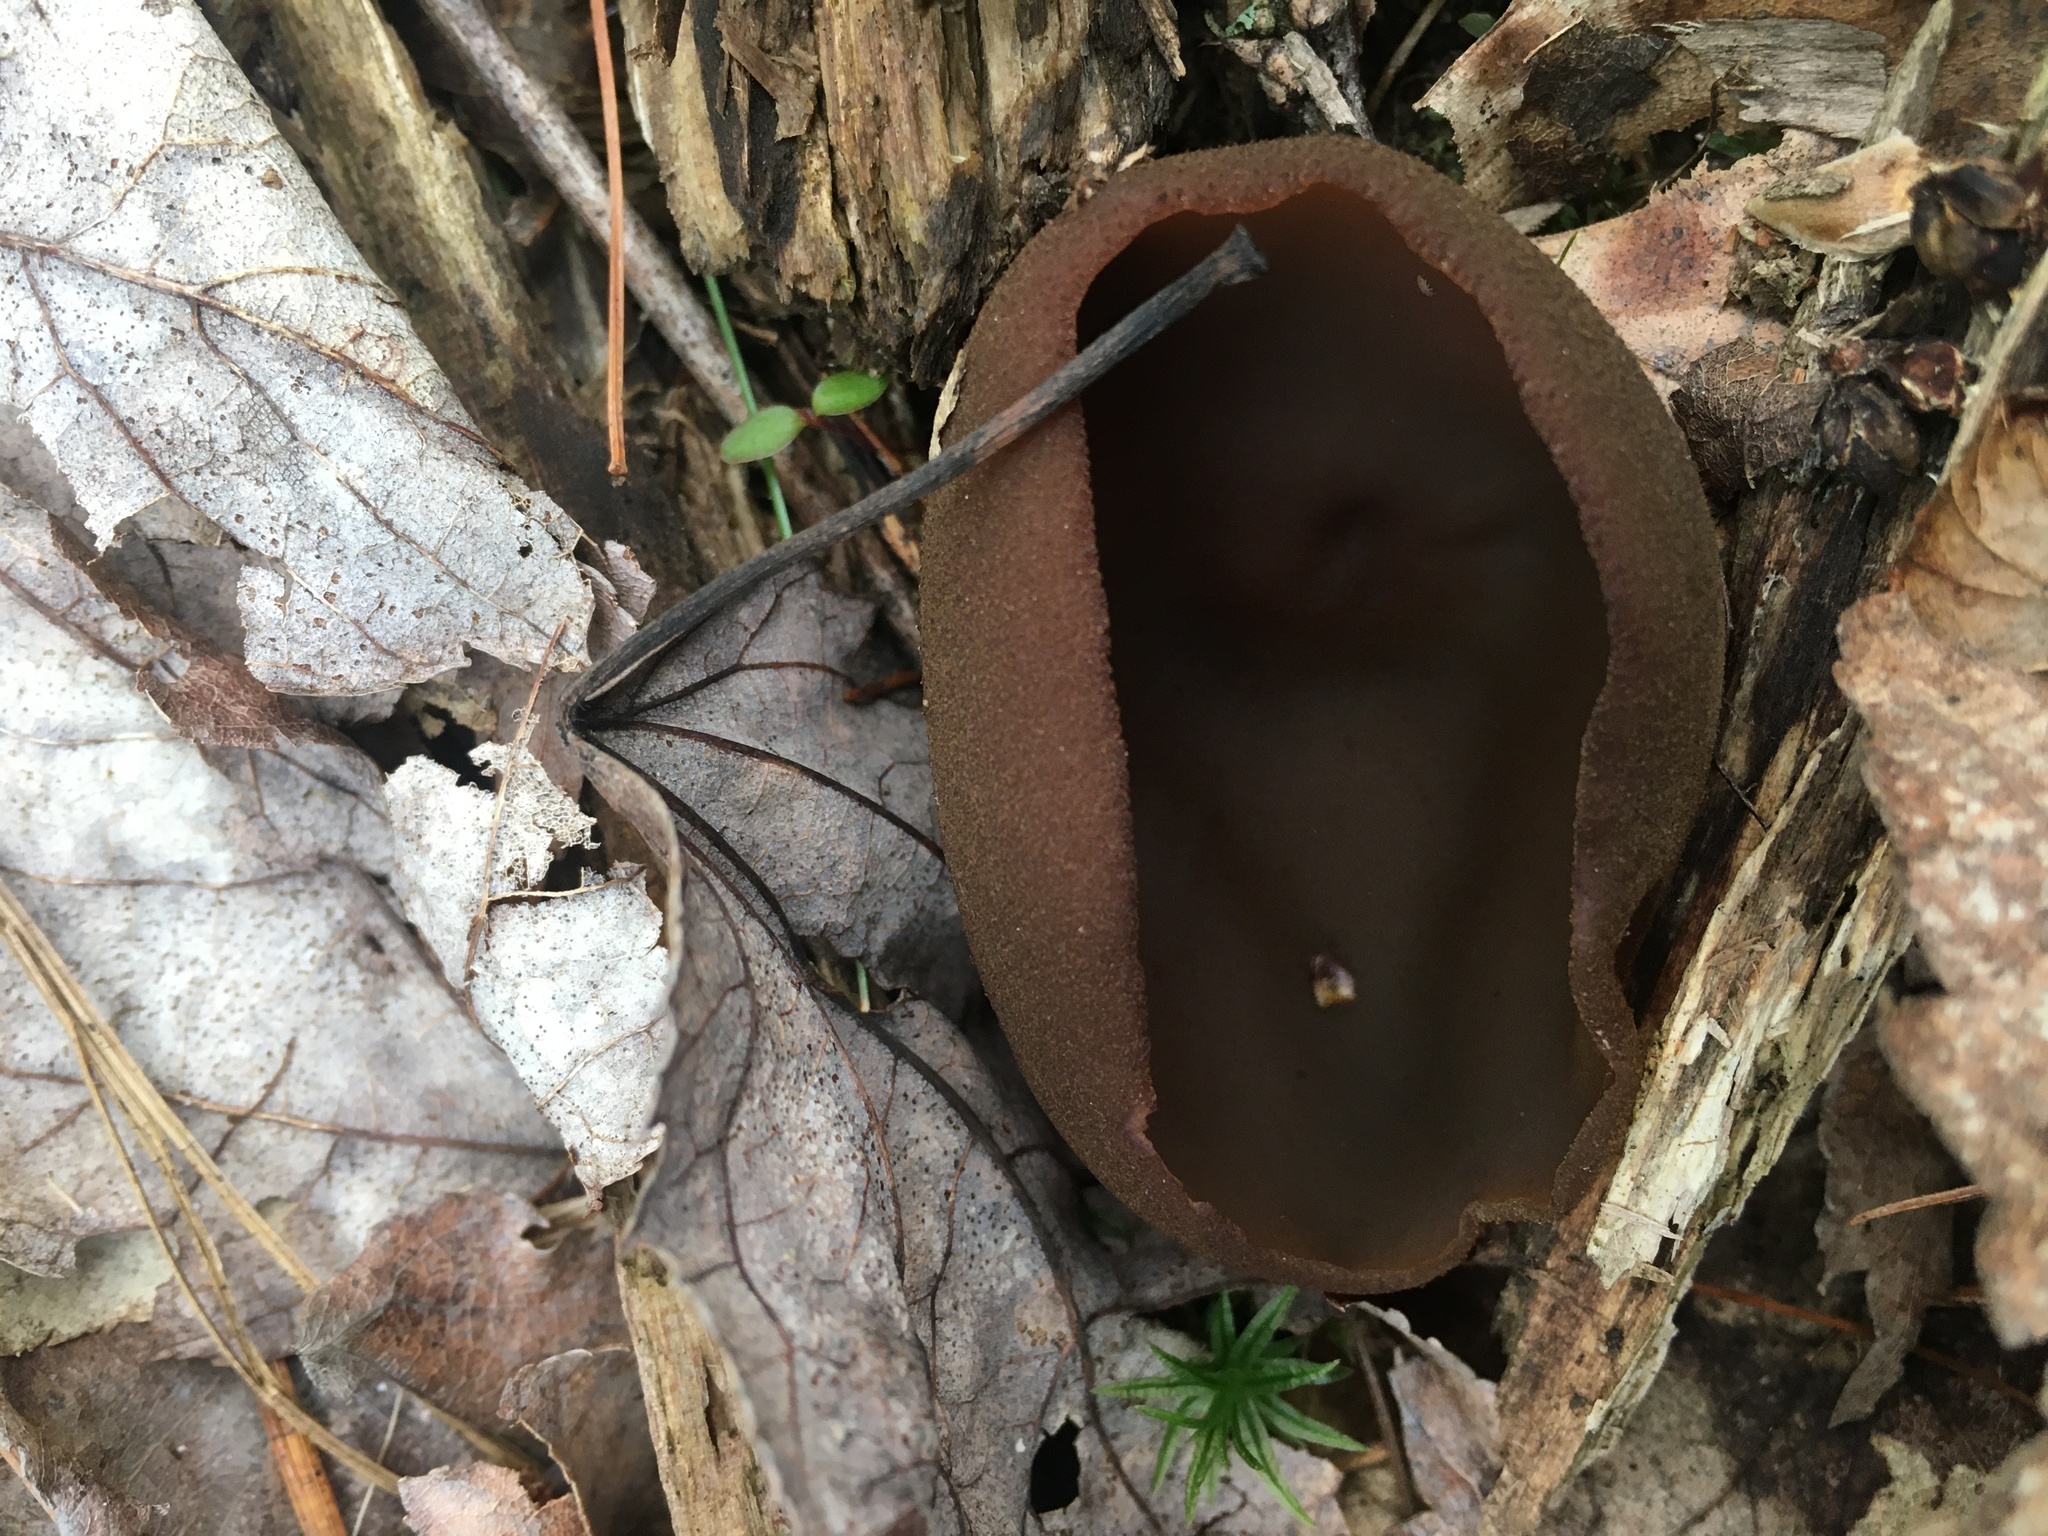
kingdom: Fungi
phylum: Ascomycota
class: Pezizomycetes
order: Pezizales
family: Pezizaceae
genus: Phylloscypha
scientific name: Phylloscypha phyllogena
